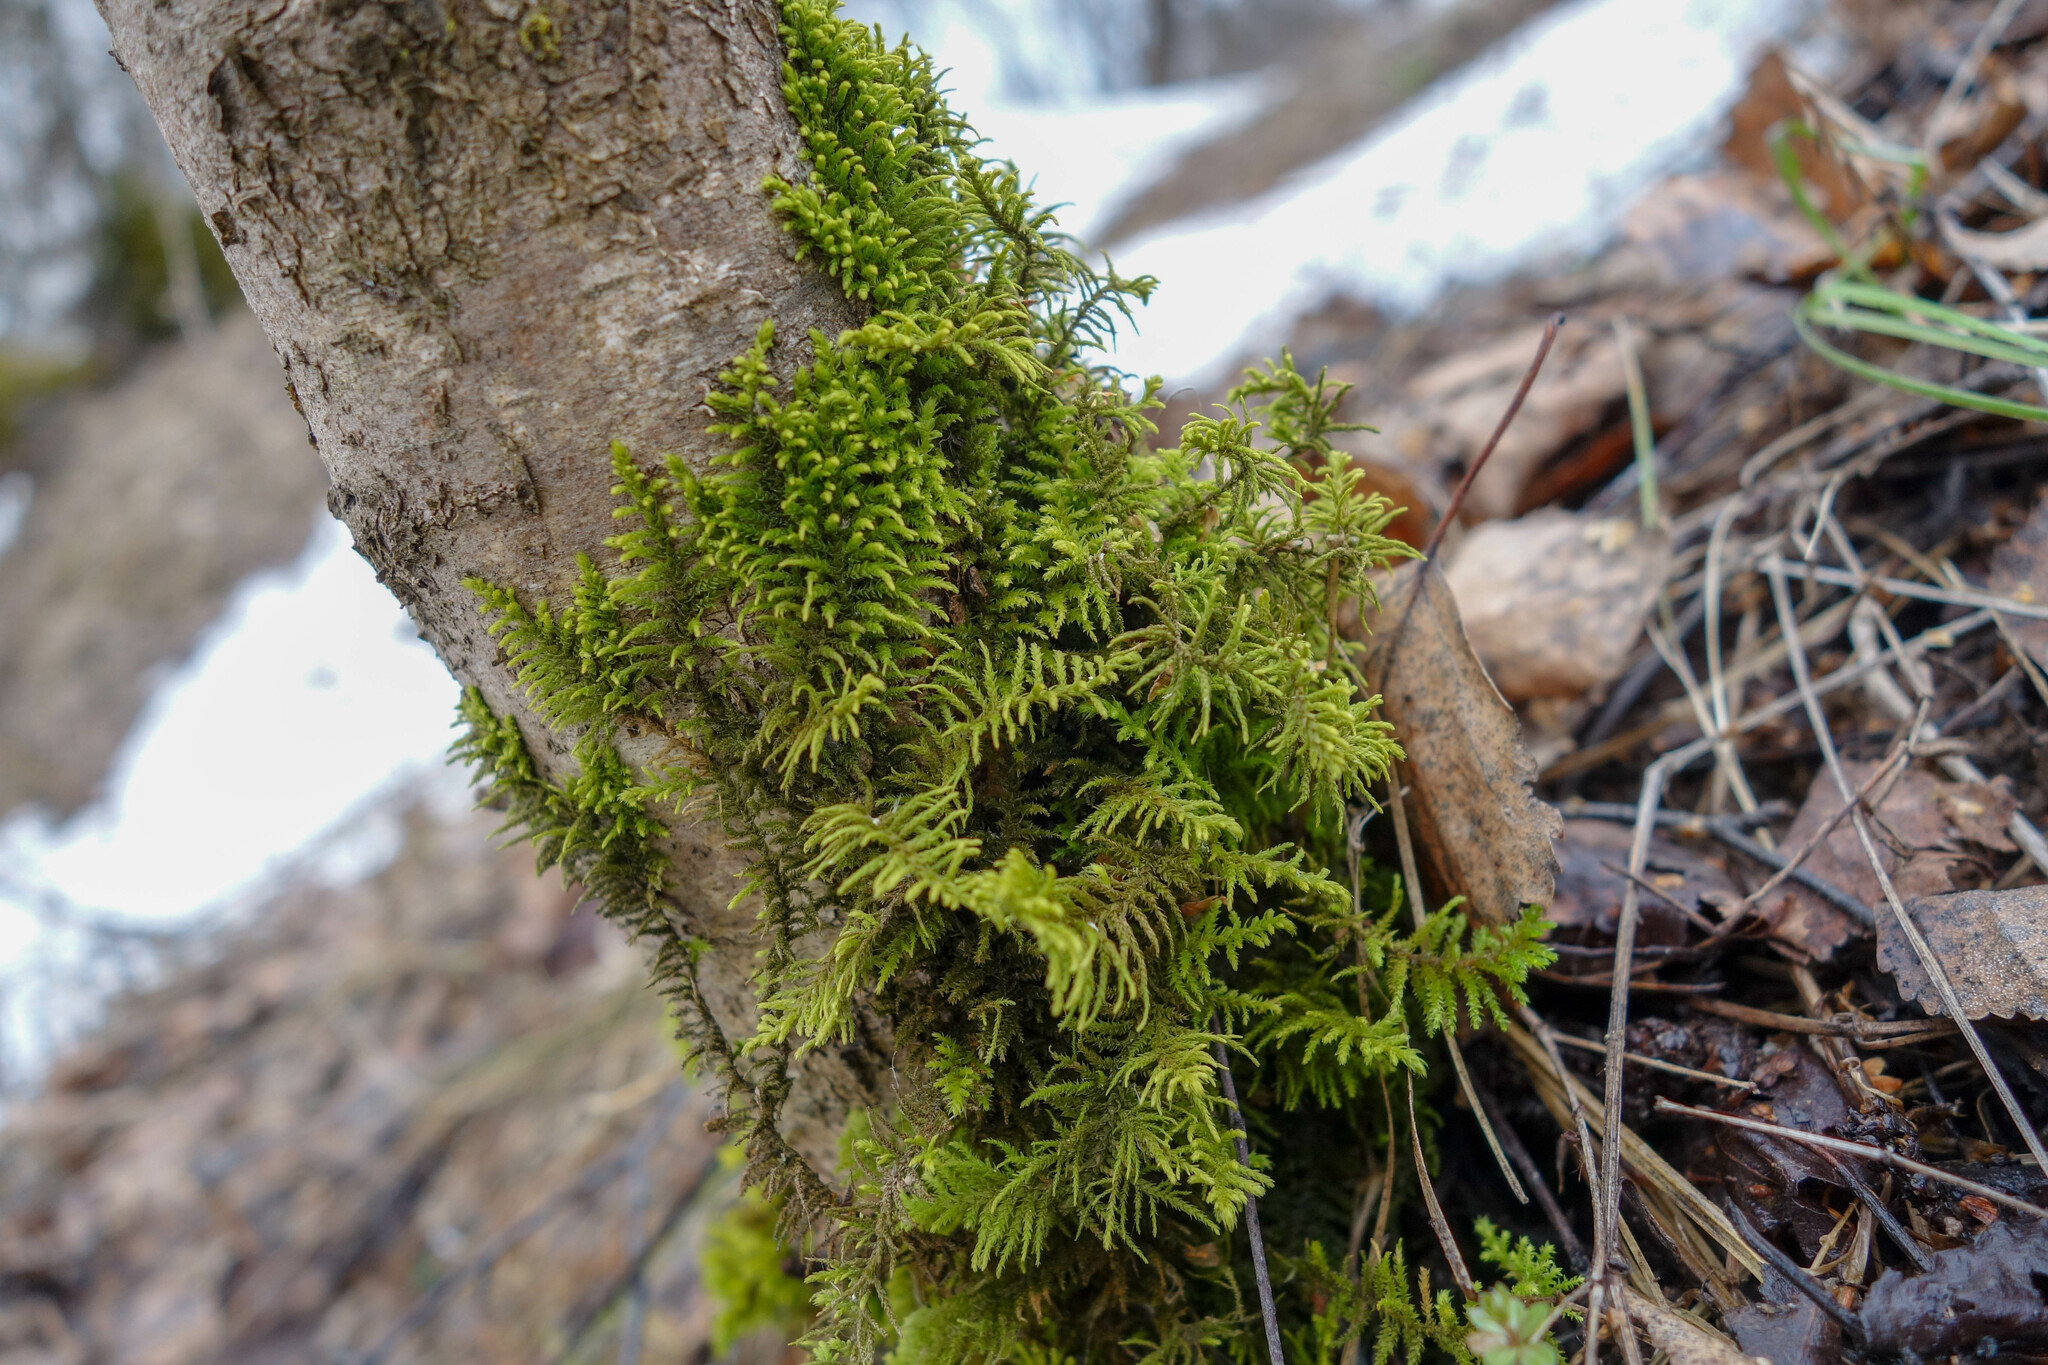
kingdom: Plantae
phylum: Bryophyta
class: Bryopsida
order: Hypnales
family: Thuidiaceae
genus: Abietinella
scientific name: Abietinella abietina
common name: Wiry fern moss
